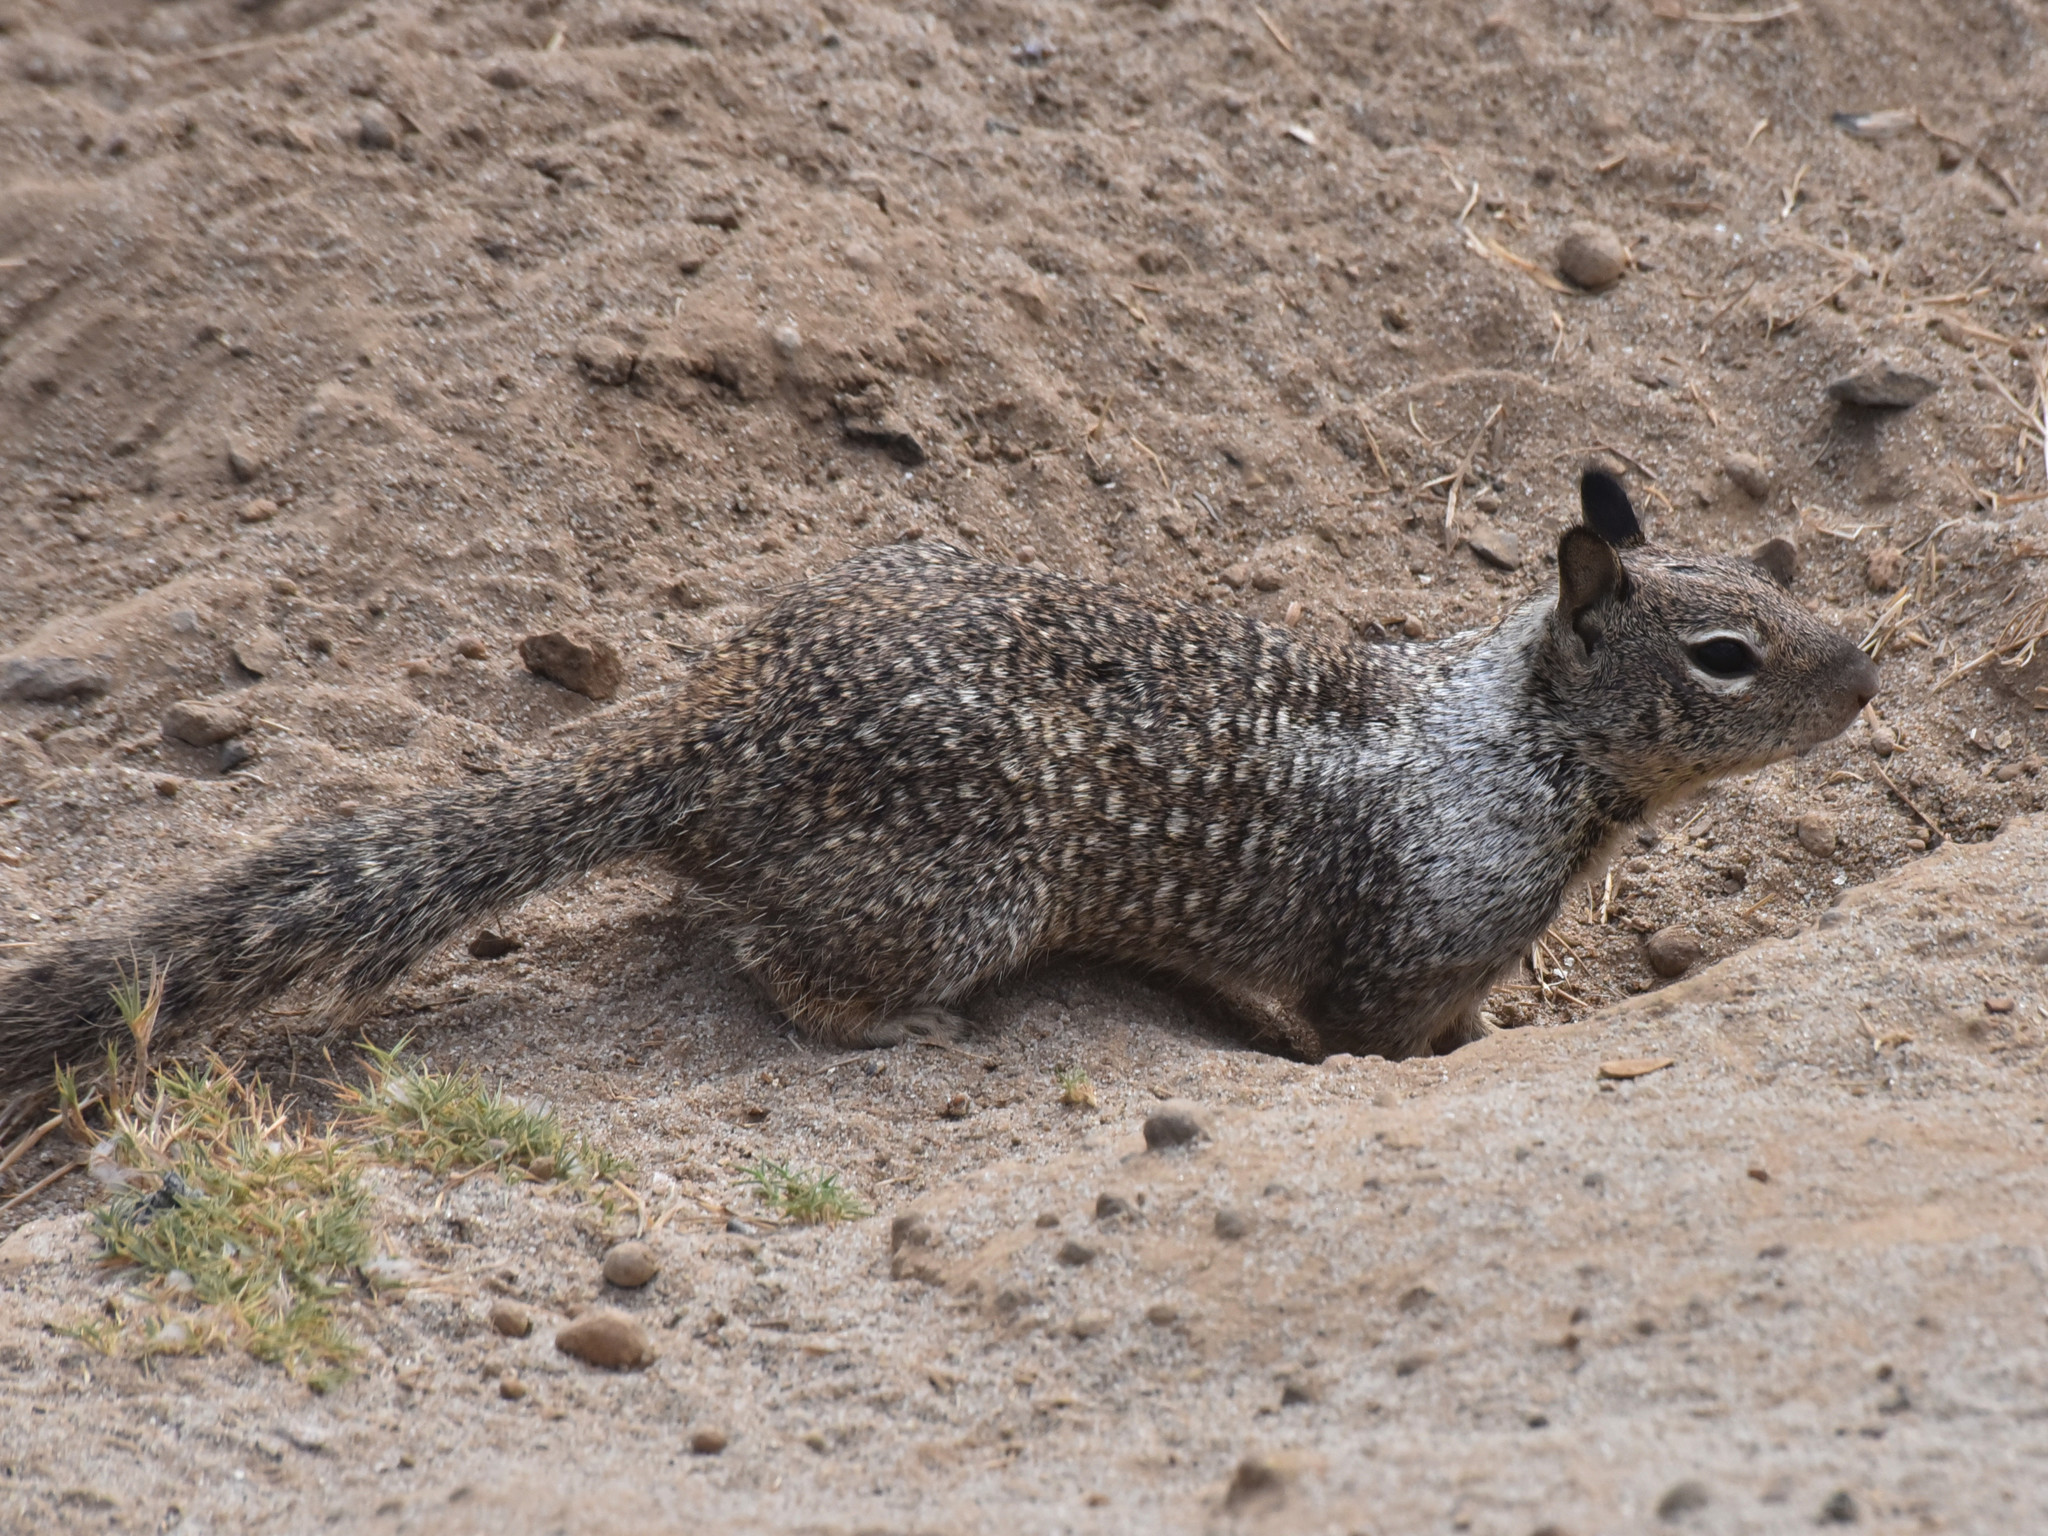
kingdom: Animalia
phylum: Chordata
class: Mammalia
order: Rodentia
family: Sciuridae
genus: Otospermophilus
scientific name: Otospermophilus beecheyi
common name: California ground squirrel
